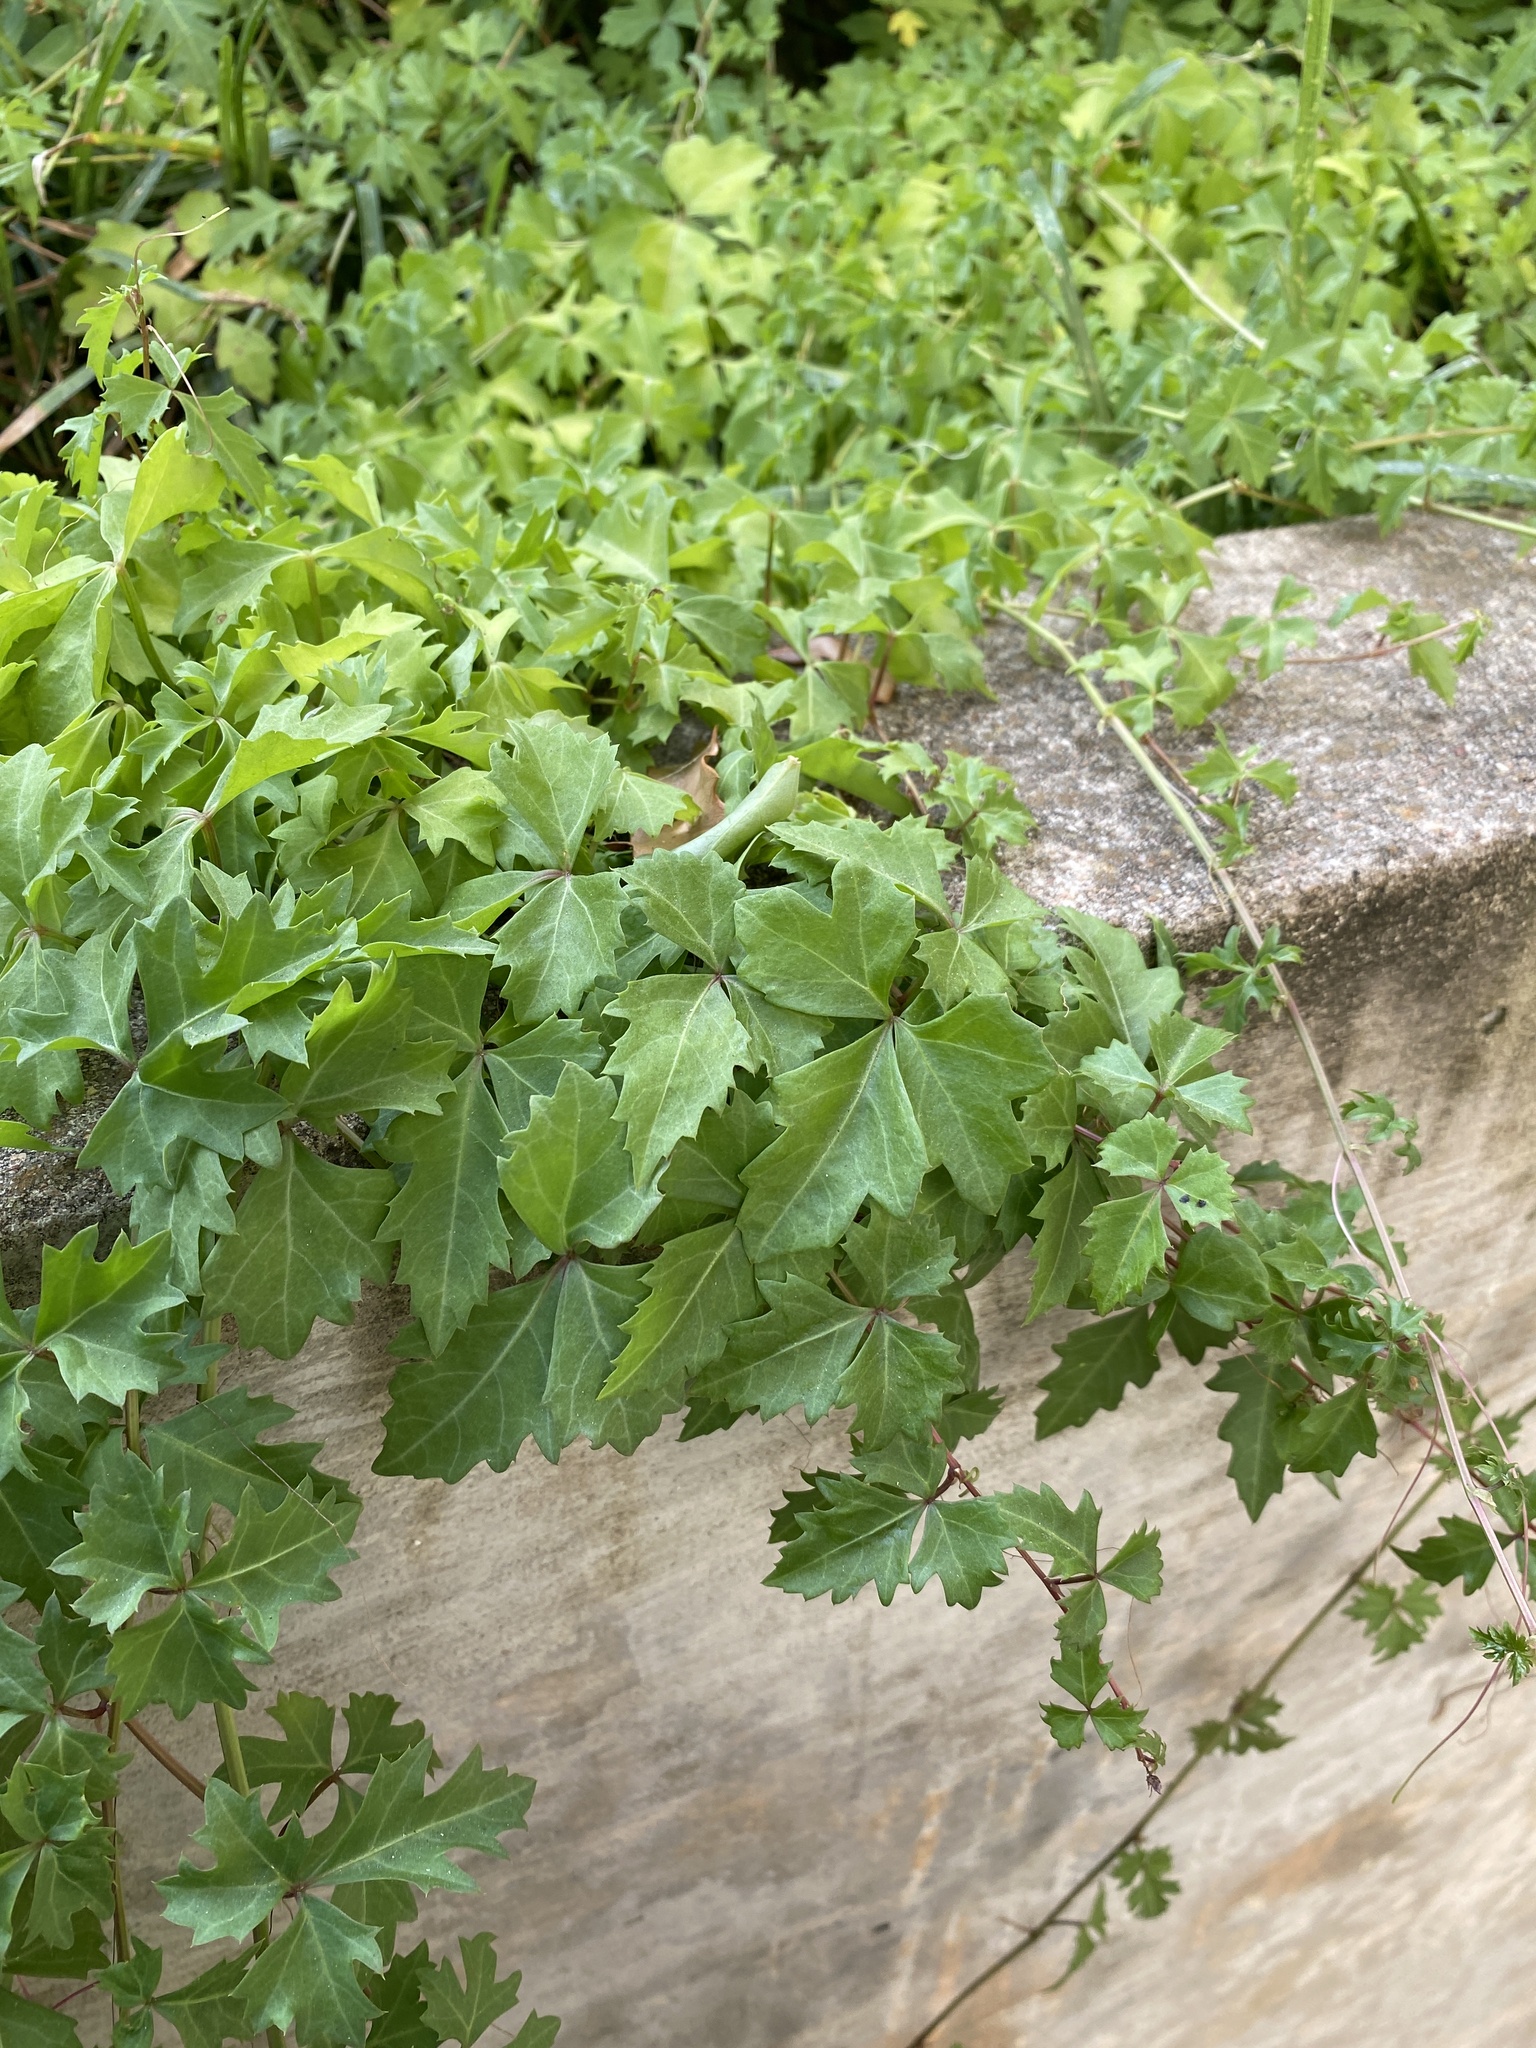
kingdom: Plantae
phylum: Tracheophyta
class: Magnoliopsida
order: Vitales
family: Vitaceae
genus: Cissus
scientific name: Cissus trifoliata
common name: Vine-sorrel
